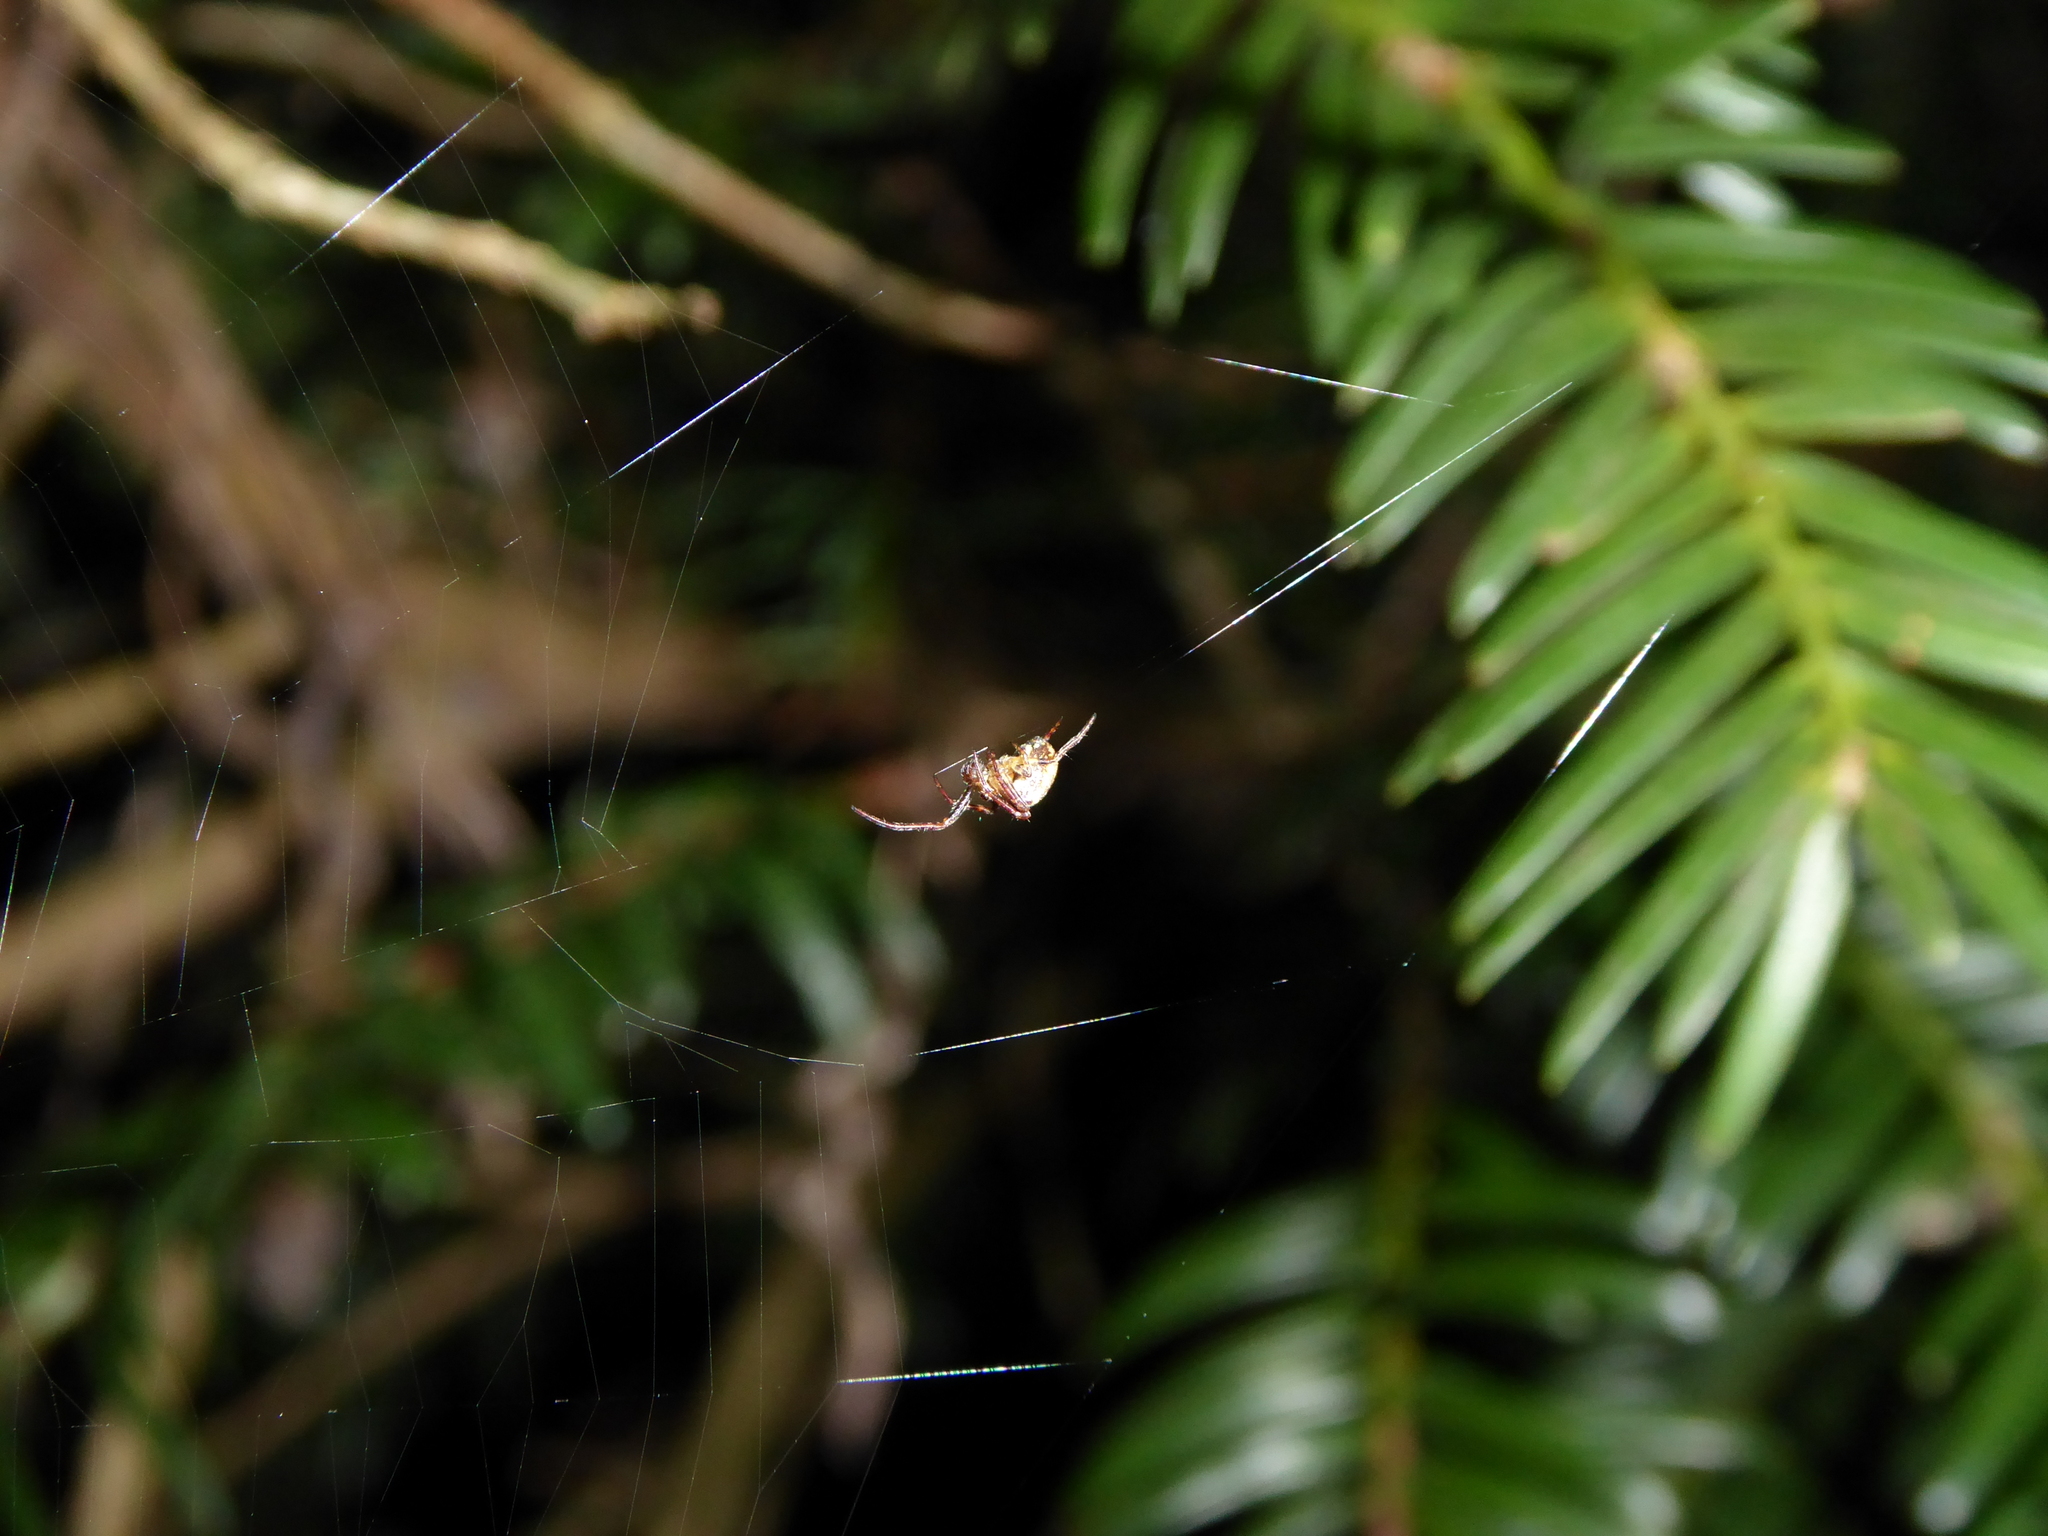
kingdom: Animalia
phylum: Arthropoda
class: Arachnida
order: Araneae
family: Araneidae
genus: Zilla
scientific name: Zilla diodia
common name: Zilla diodia
